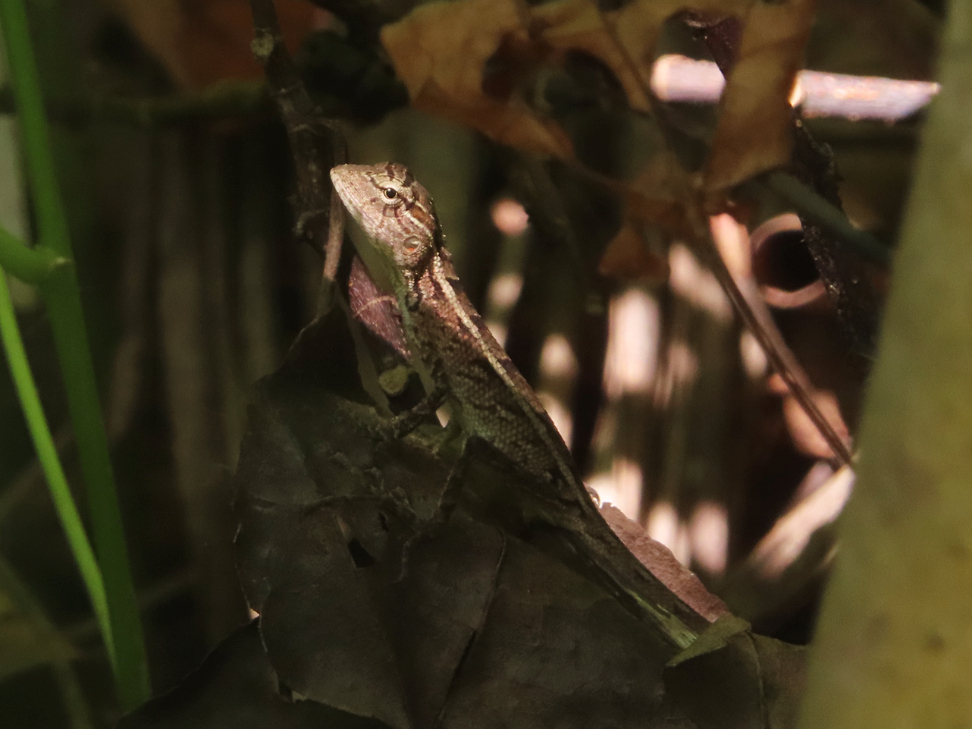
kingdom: Animalia
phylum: Chordata
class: Squamata
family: Agamidae
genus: Calotes
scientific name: Calotes versicolor
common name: Oriental garden lizard
